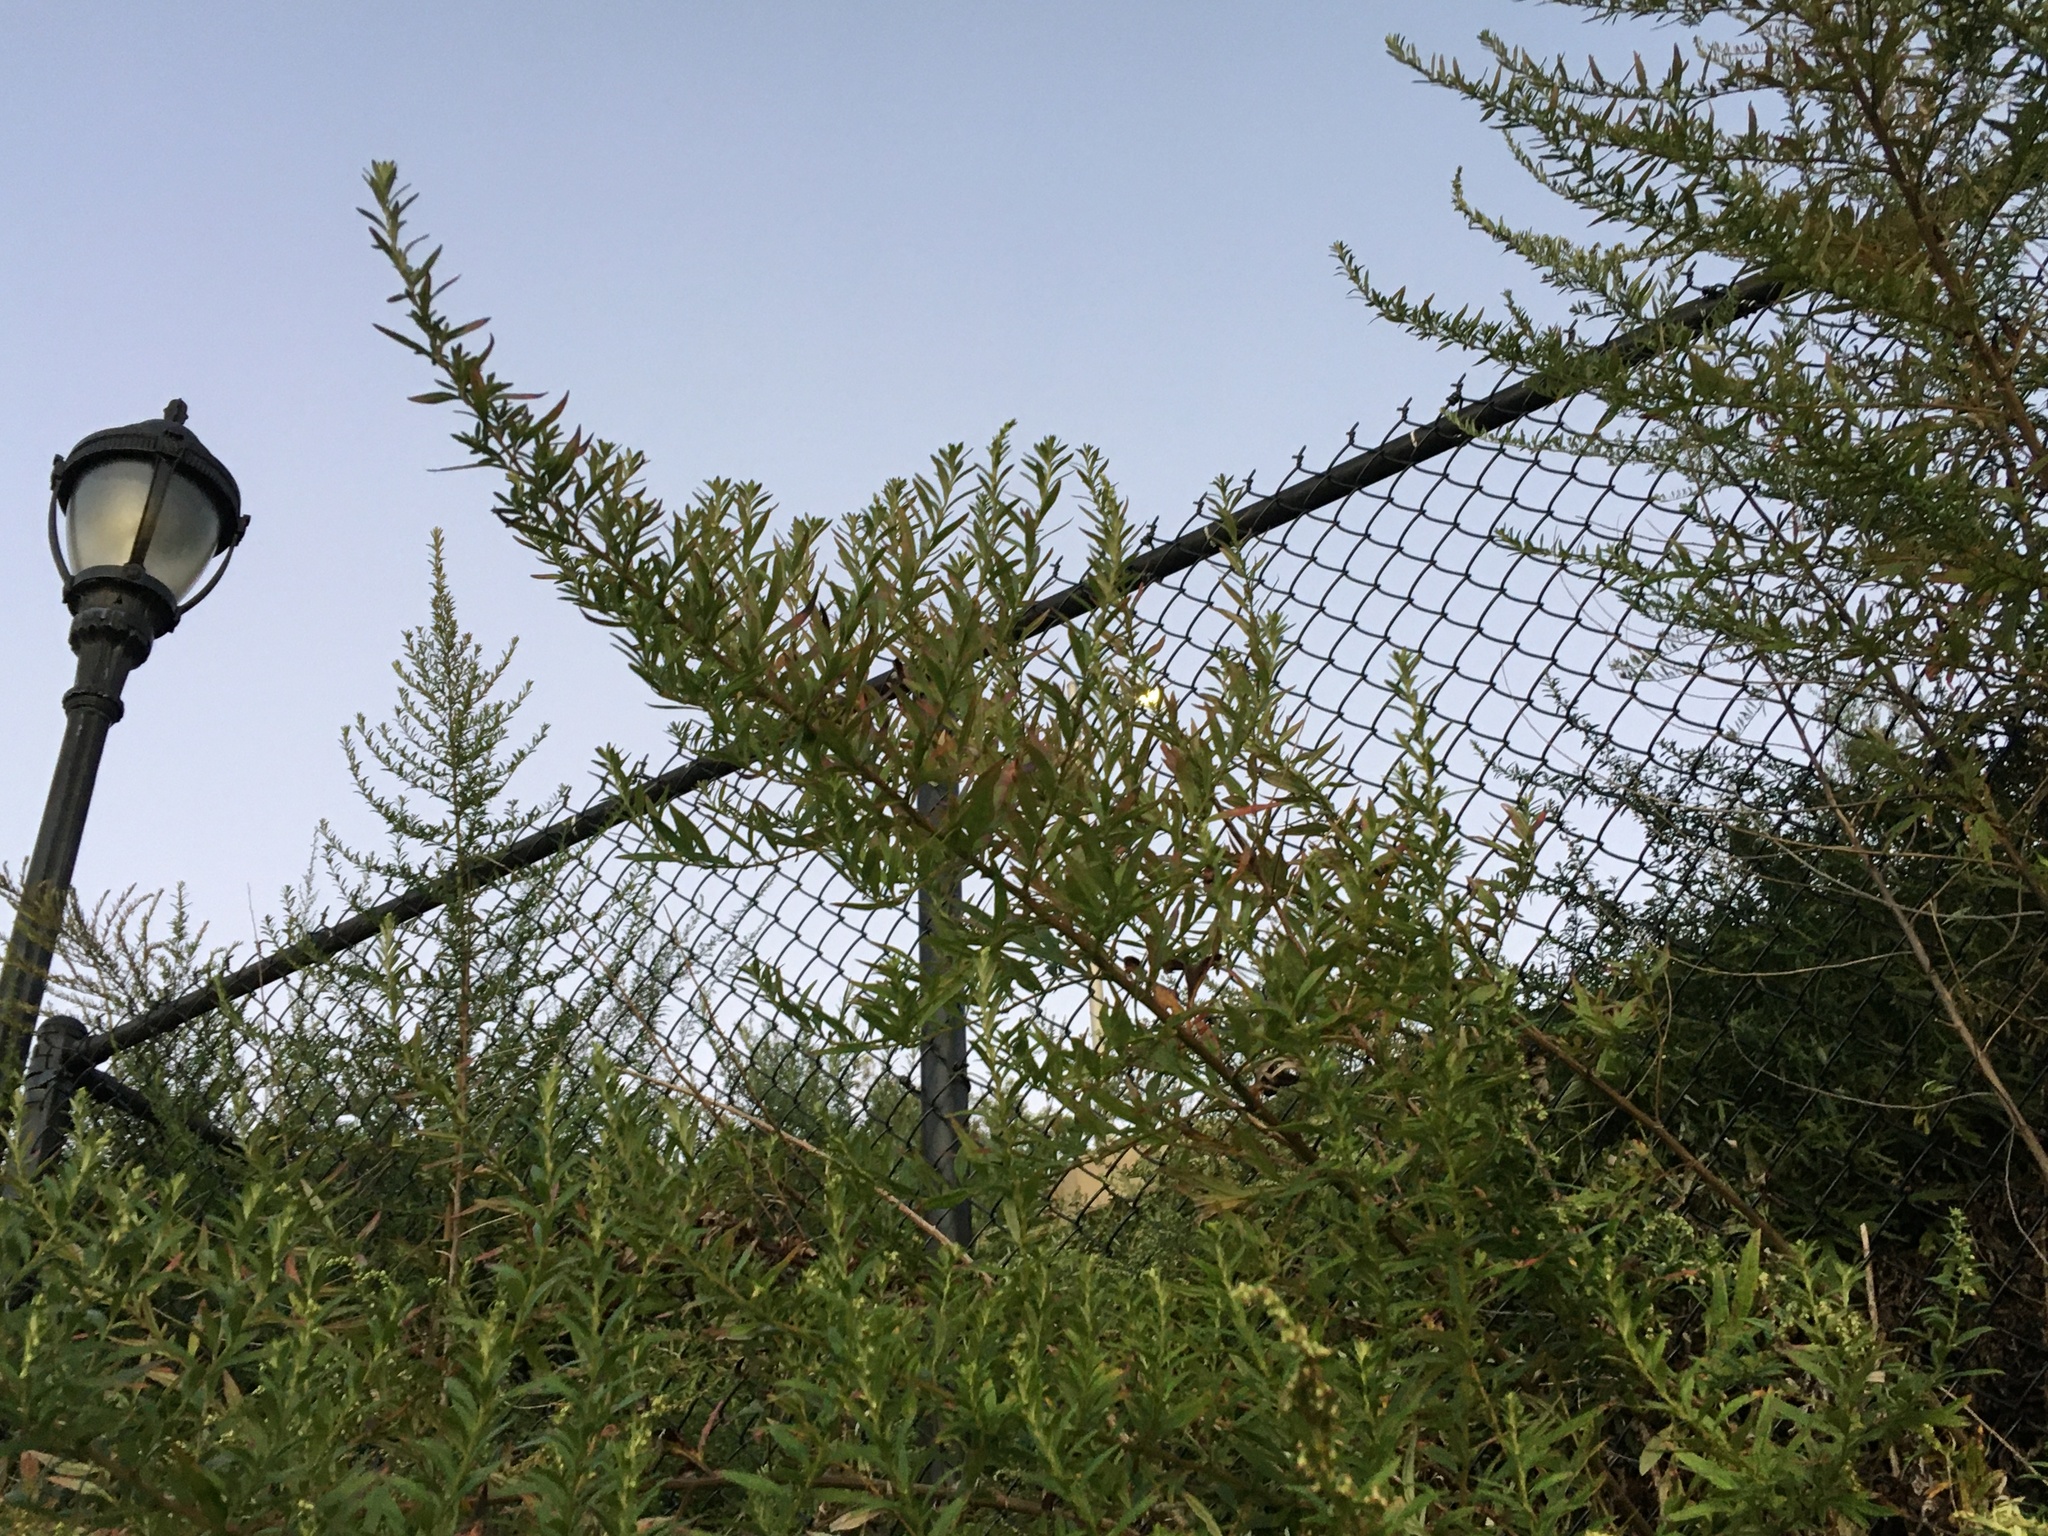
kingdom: Plantae
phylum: Tracheophyta
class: Magnoliopsida
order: Asterales
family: Asteraceae
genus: Artemisia
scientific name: Artemisia vulgaris
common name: Mugwort
